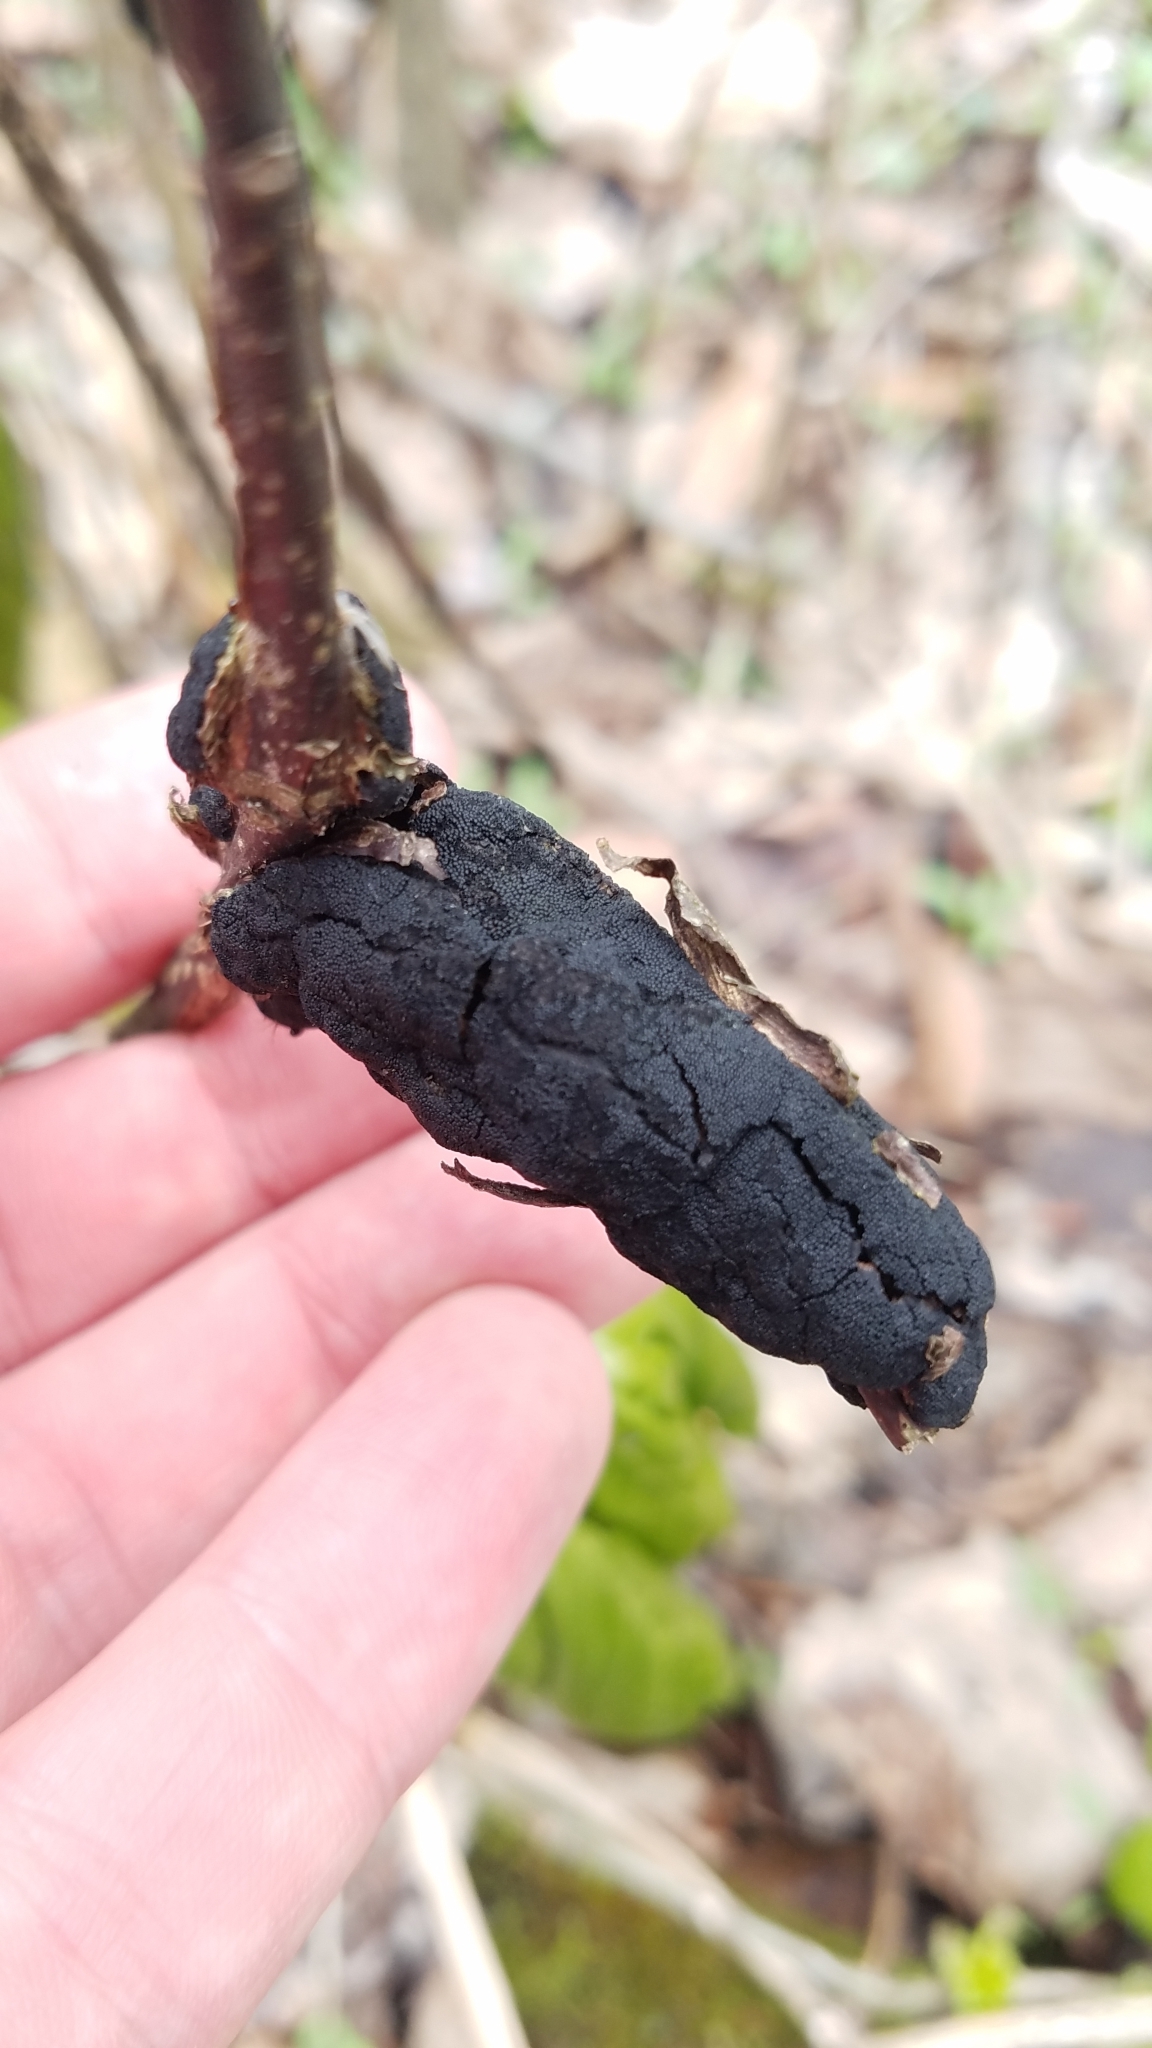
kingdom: Fungi
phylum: Ascomycota
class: Dothideomycetes
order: Venturiales
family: Venturiaceae
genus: Apiosporina
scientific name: Apiosporina morbosa
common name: Black knot
